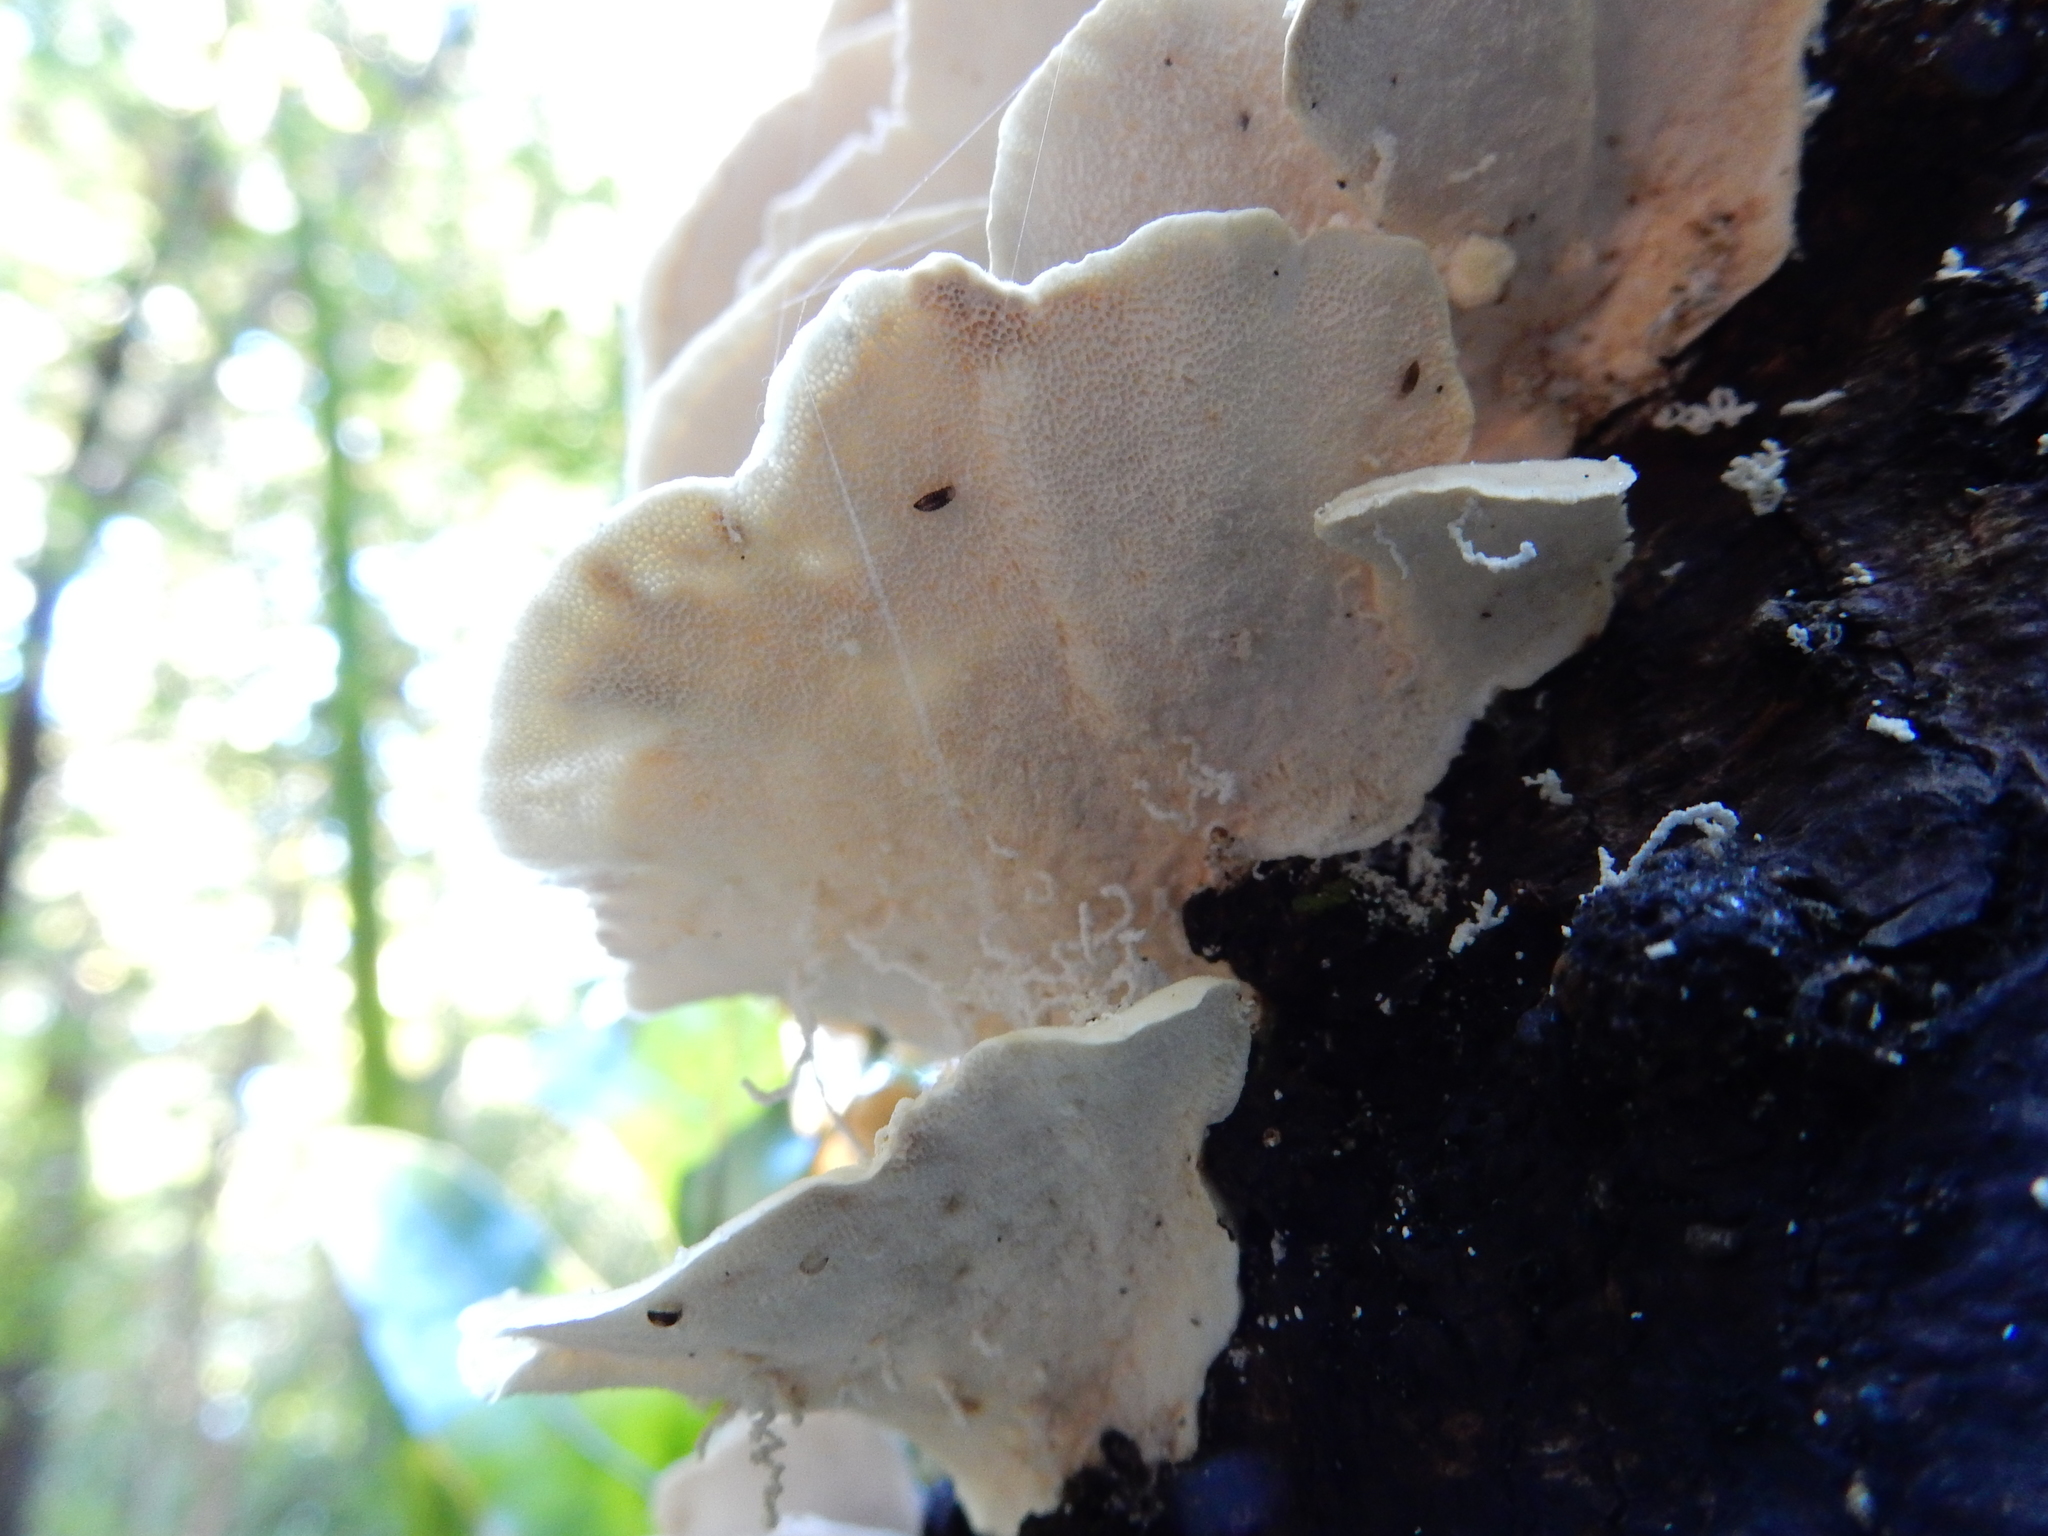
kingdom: Fungi
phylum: Basidiomycota
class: Agaricomycetes
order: Polyporales
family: Polyporaceae
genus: Trametes
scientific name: Trametes versicolor
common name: Turkeytail
